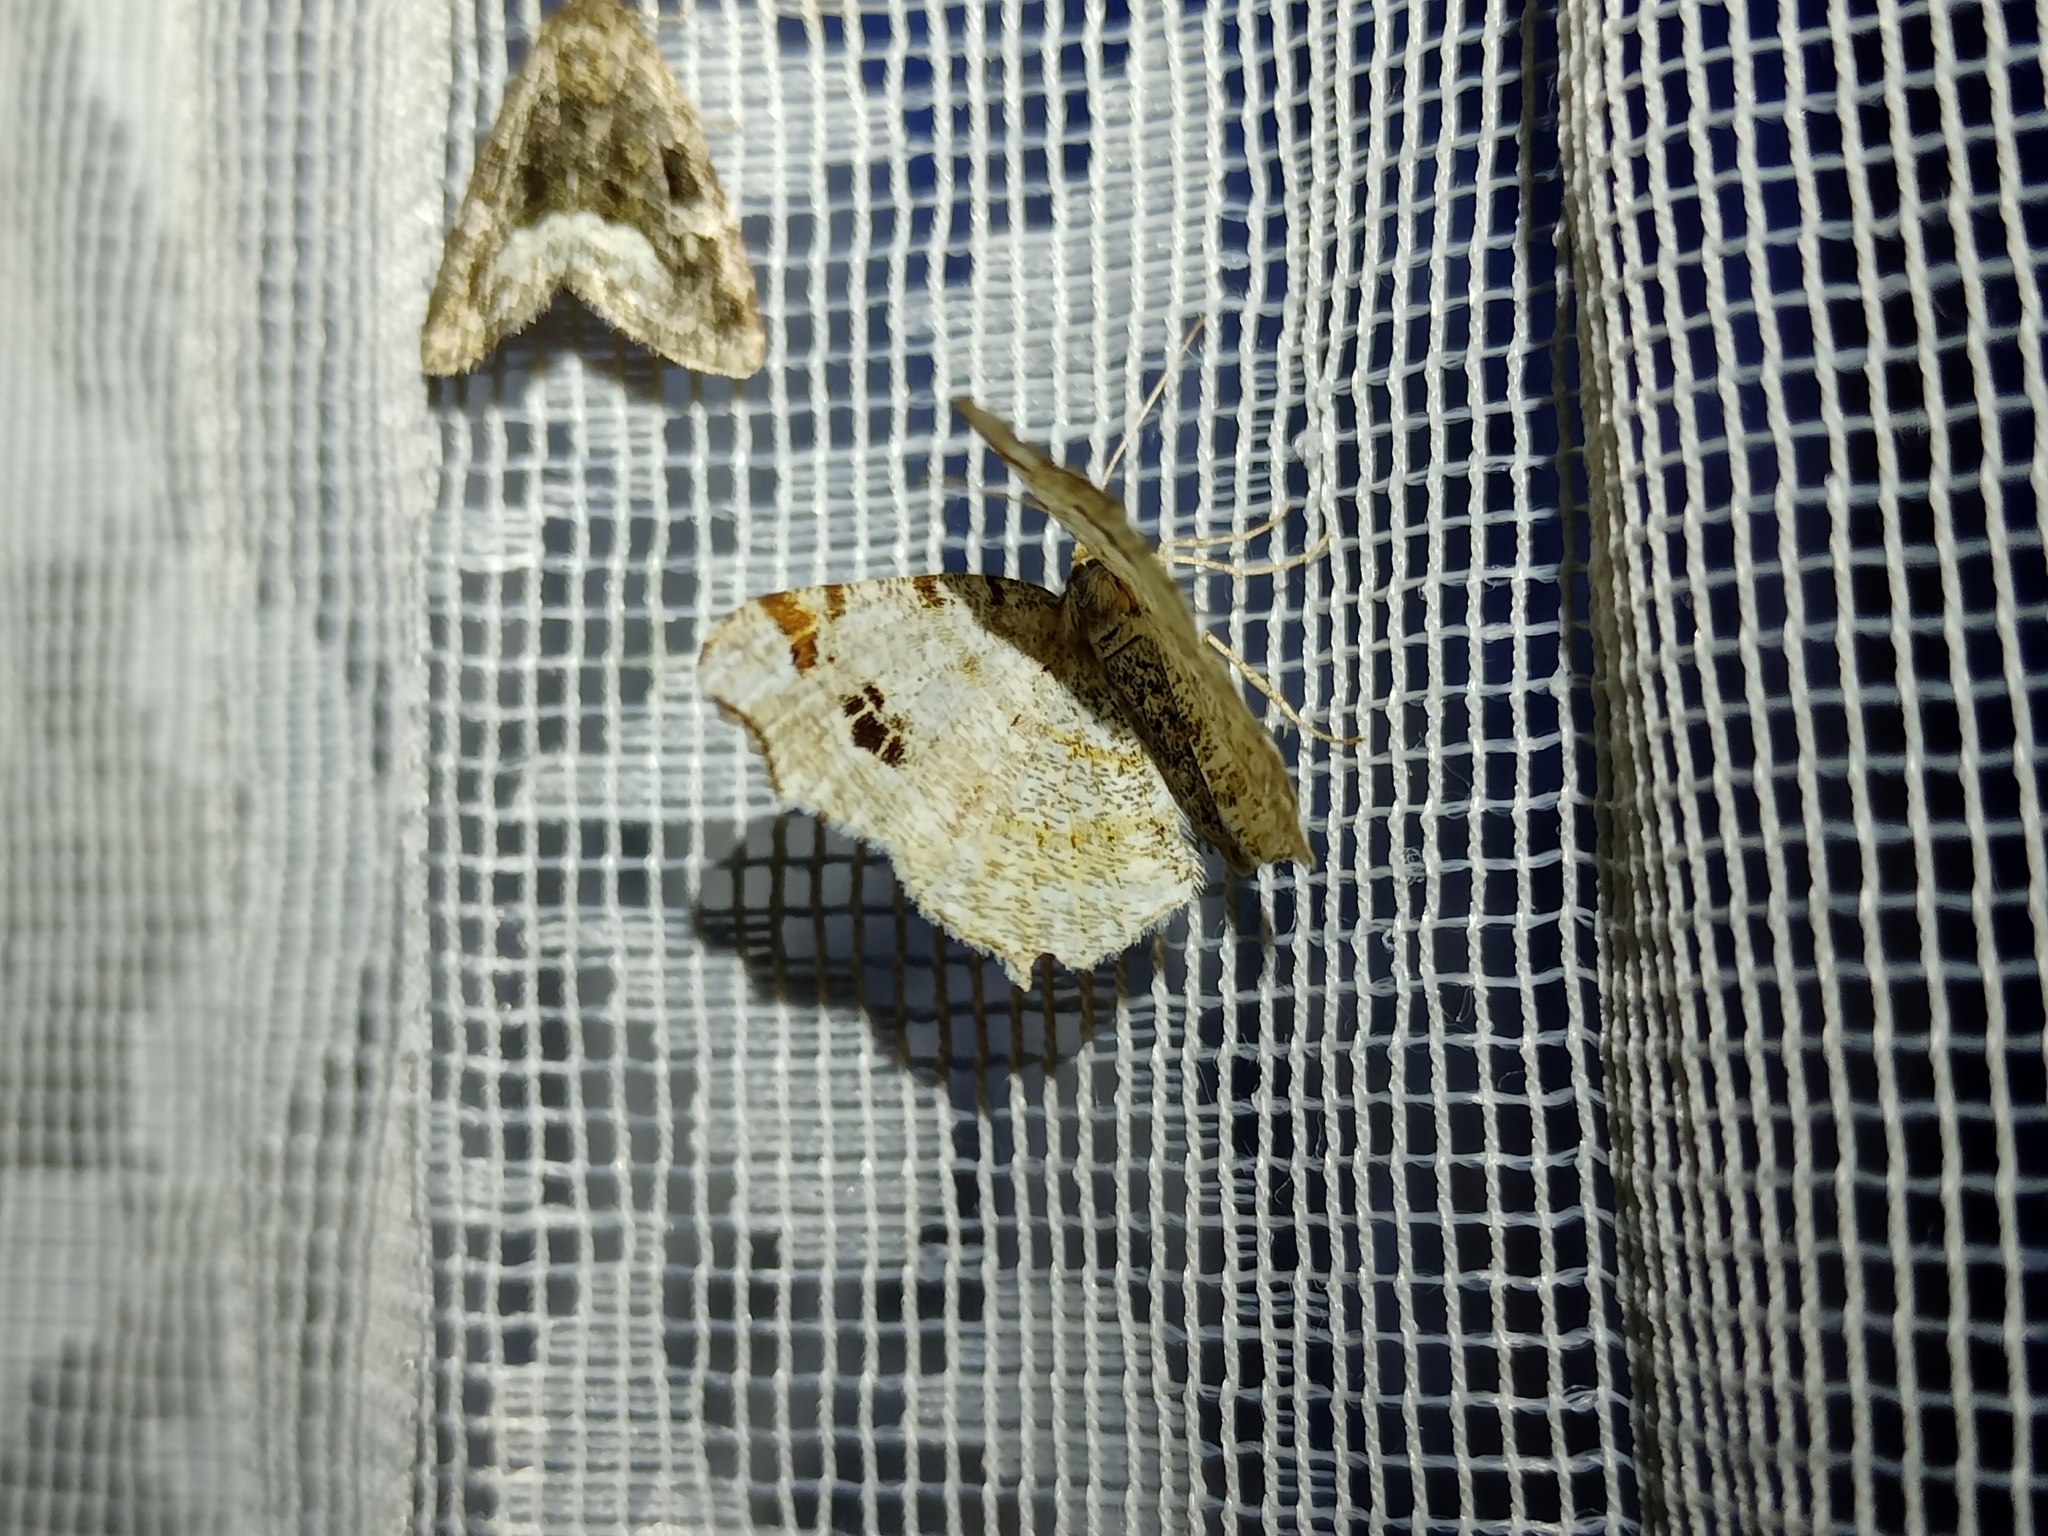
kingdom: Animalia
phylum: Arthropoda
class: Insecta
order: Lepidoptera
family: Geometridae
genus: Macaria
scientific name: Macaria notata
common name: Peacock moth
